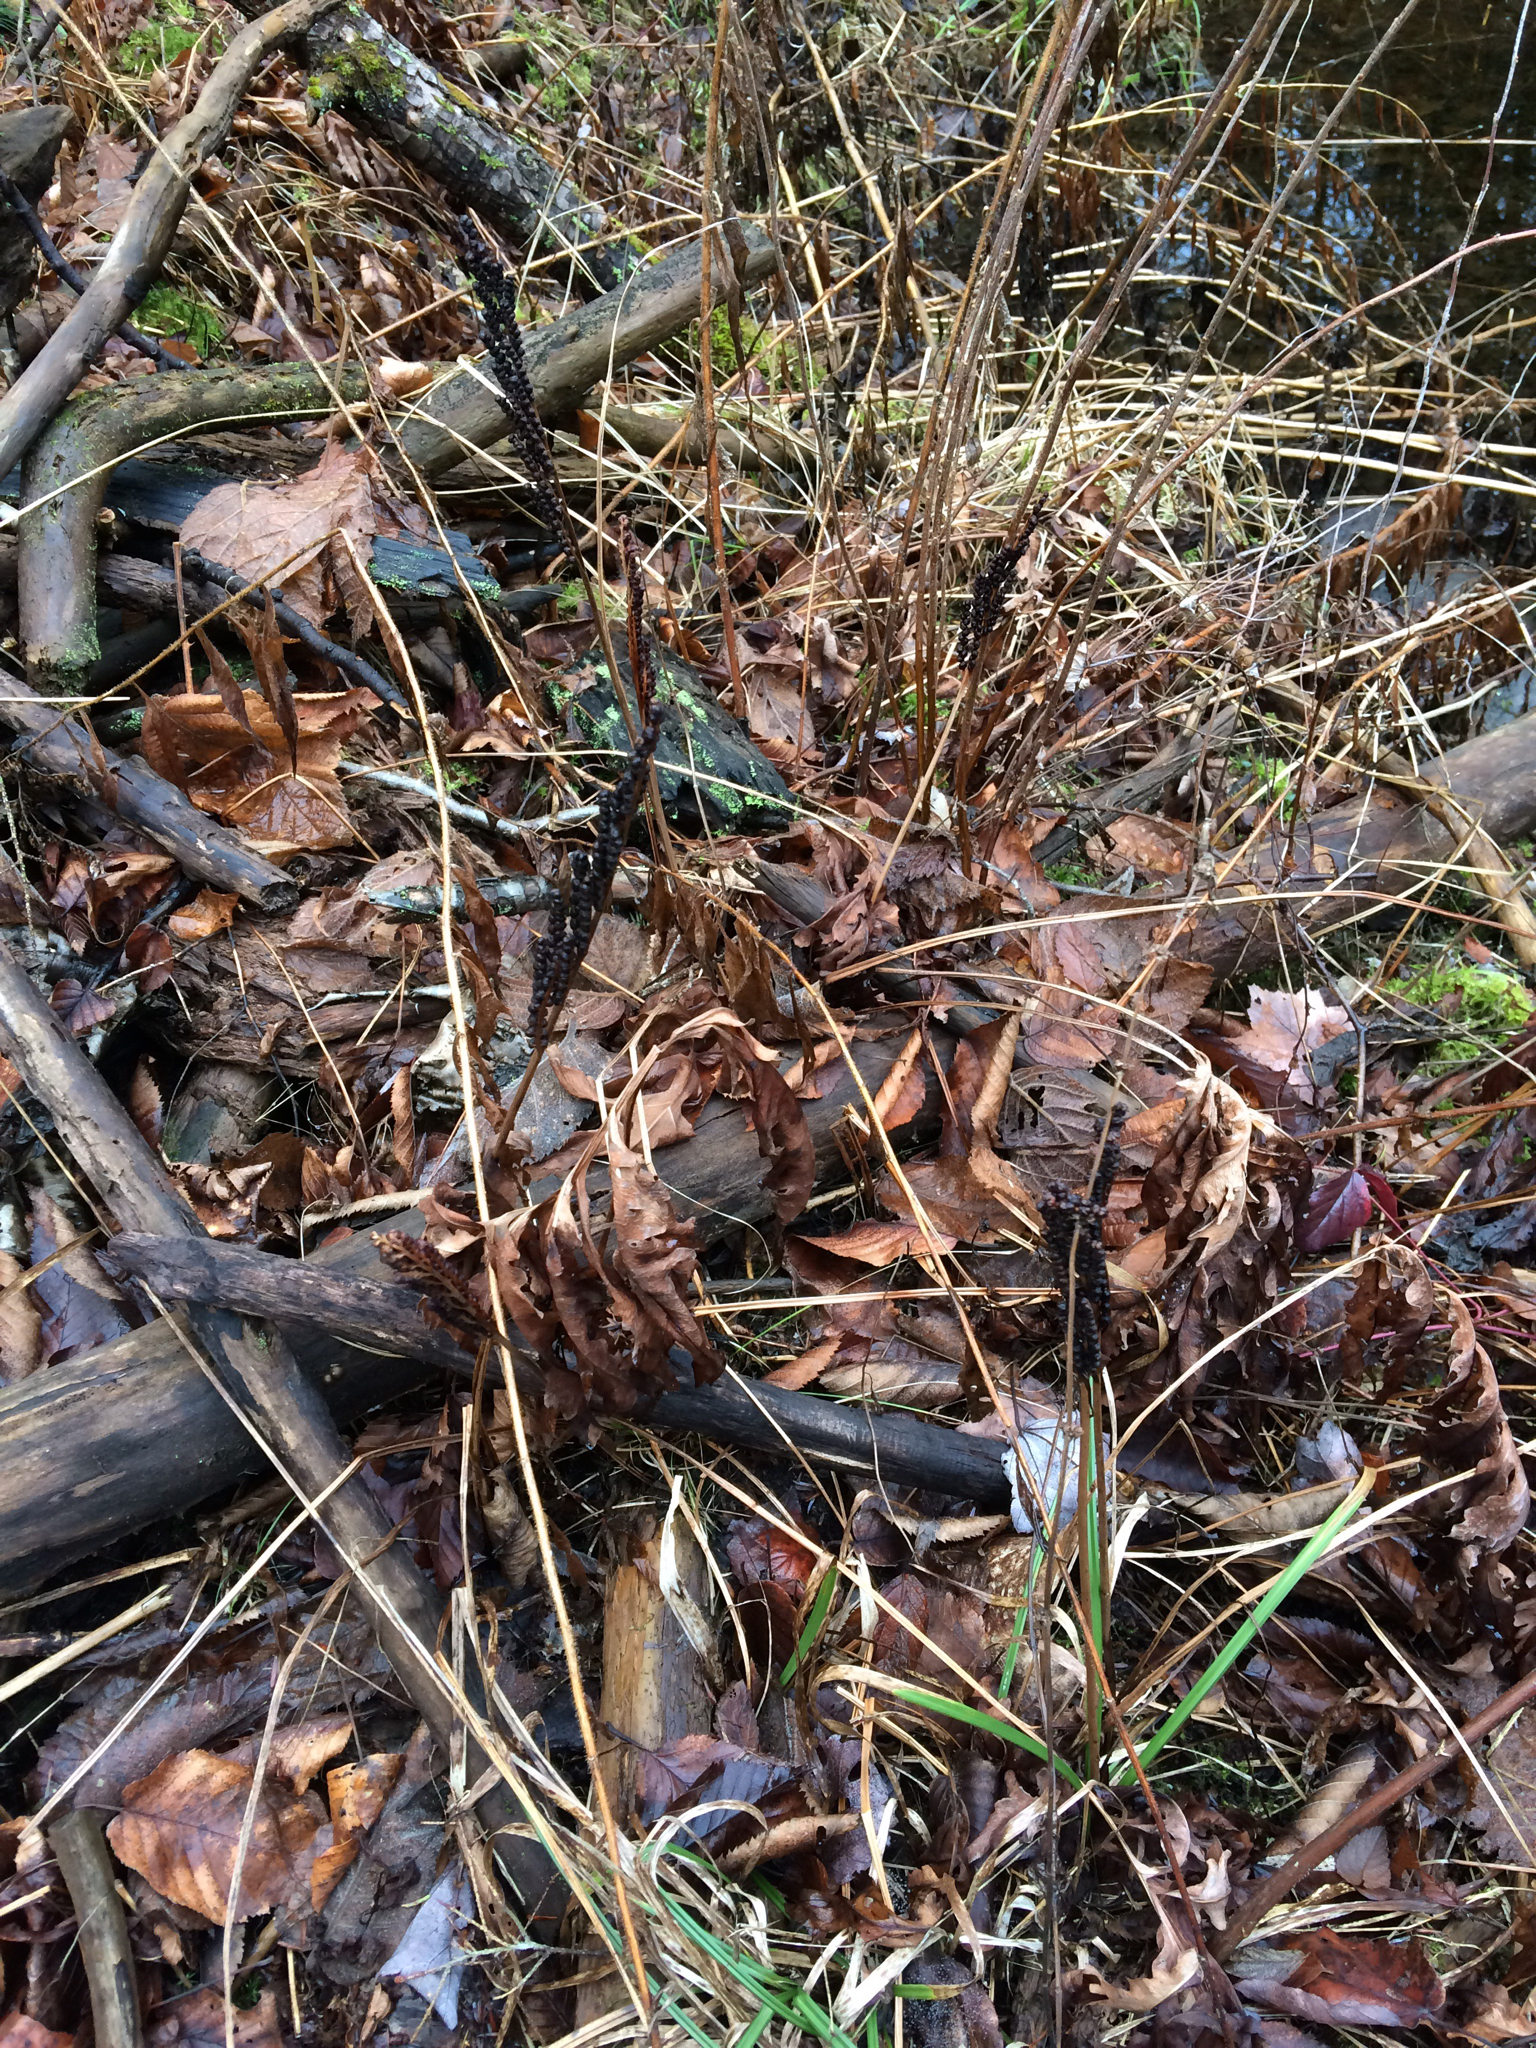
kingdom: Plantae
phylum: Tracheophyta
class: Polypodiopsida
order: Polypodiales
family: Onocleaceae
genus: Onoclea
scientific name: Onoclea sensibilis
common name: Sensitive fern
